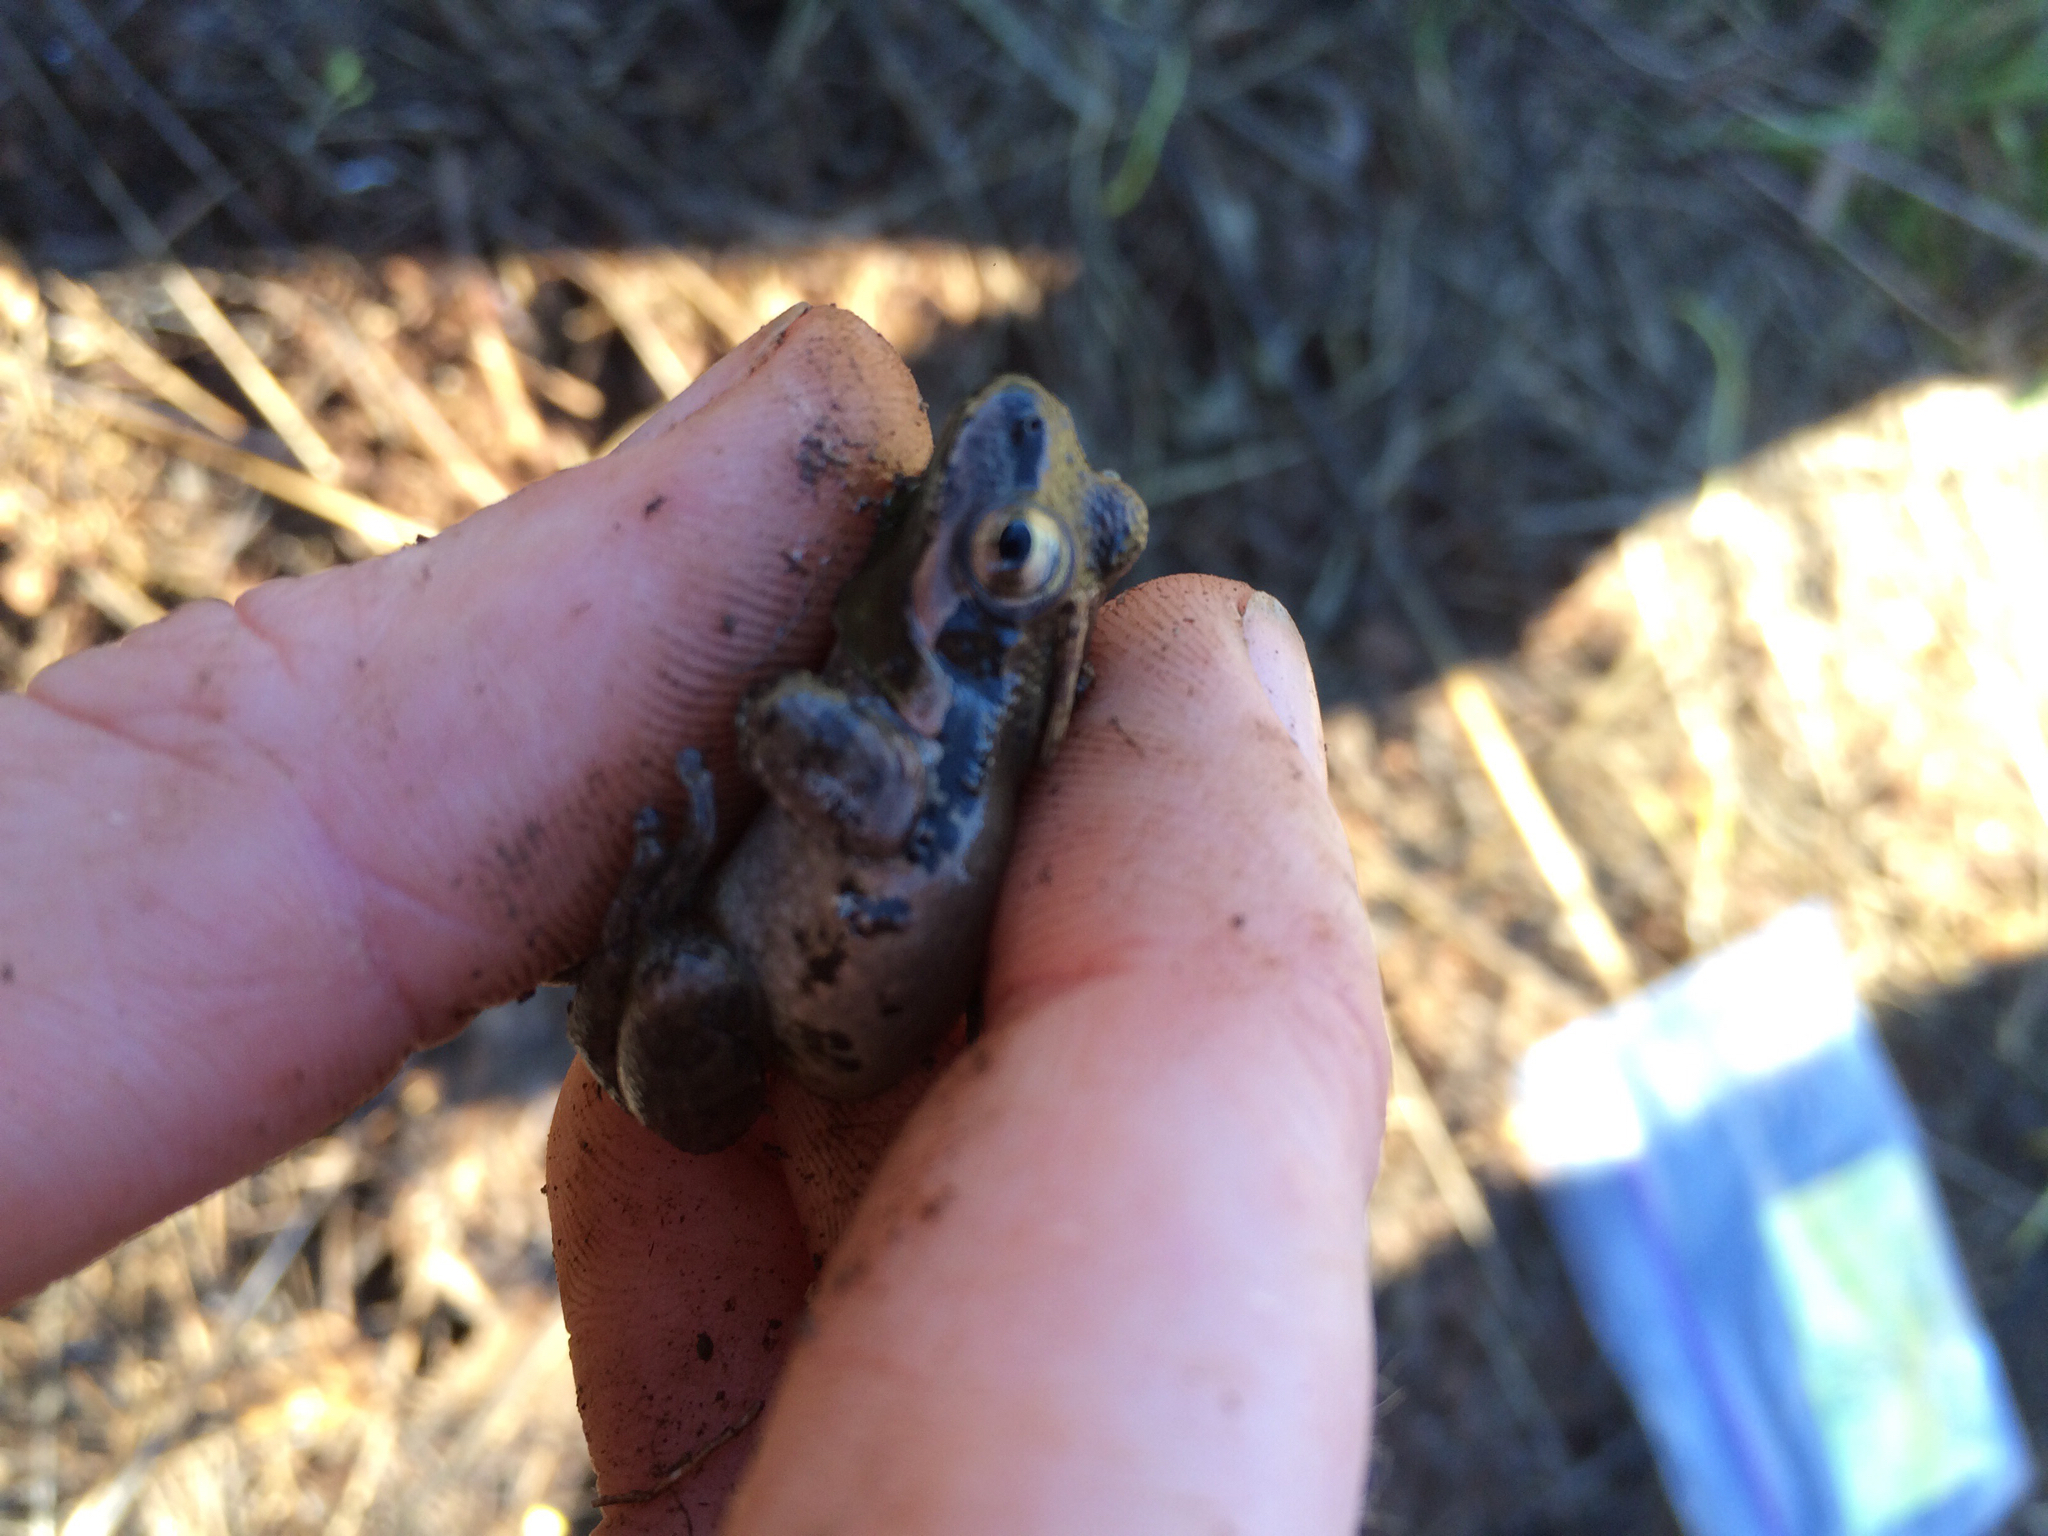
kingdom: Animalia
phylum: Chordata
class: Amphibia
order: Anura
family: Hylidae
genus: Pseudacris
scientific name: Pseudacris regilla
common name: Pacific chorus frog
